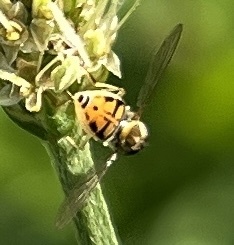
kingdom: Animalia
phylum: Arthropoda
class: Insecta
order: Diptera
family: Syrphidae
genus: Toxomerus
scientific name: Toxomerus marginatus
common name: Syrphid fly
